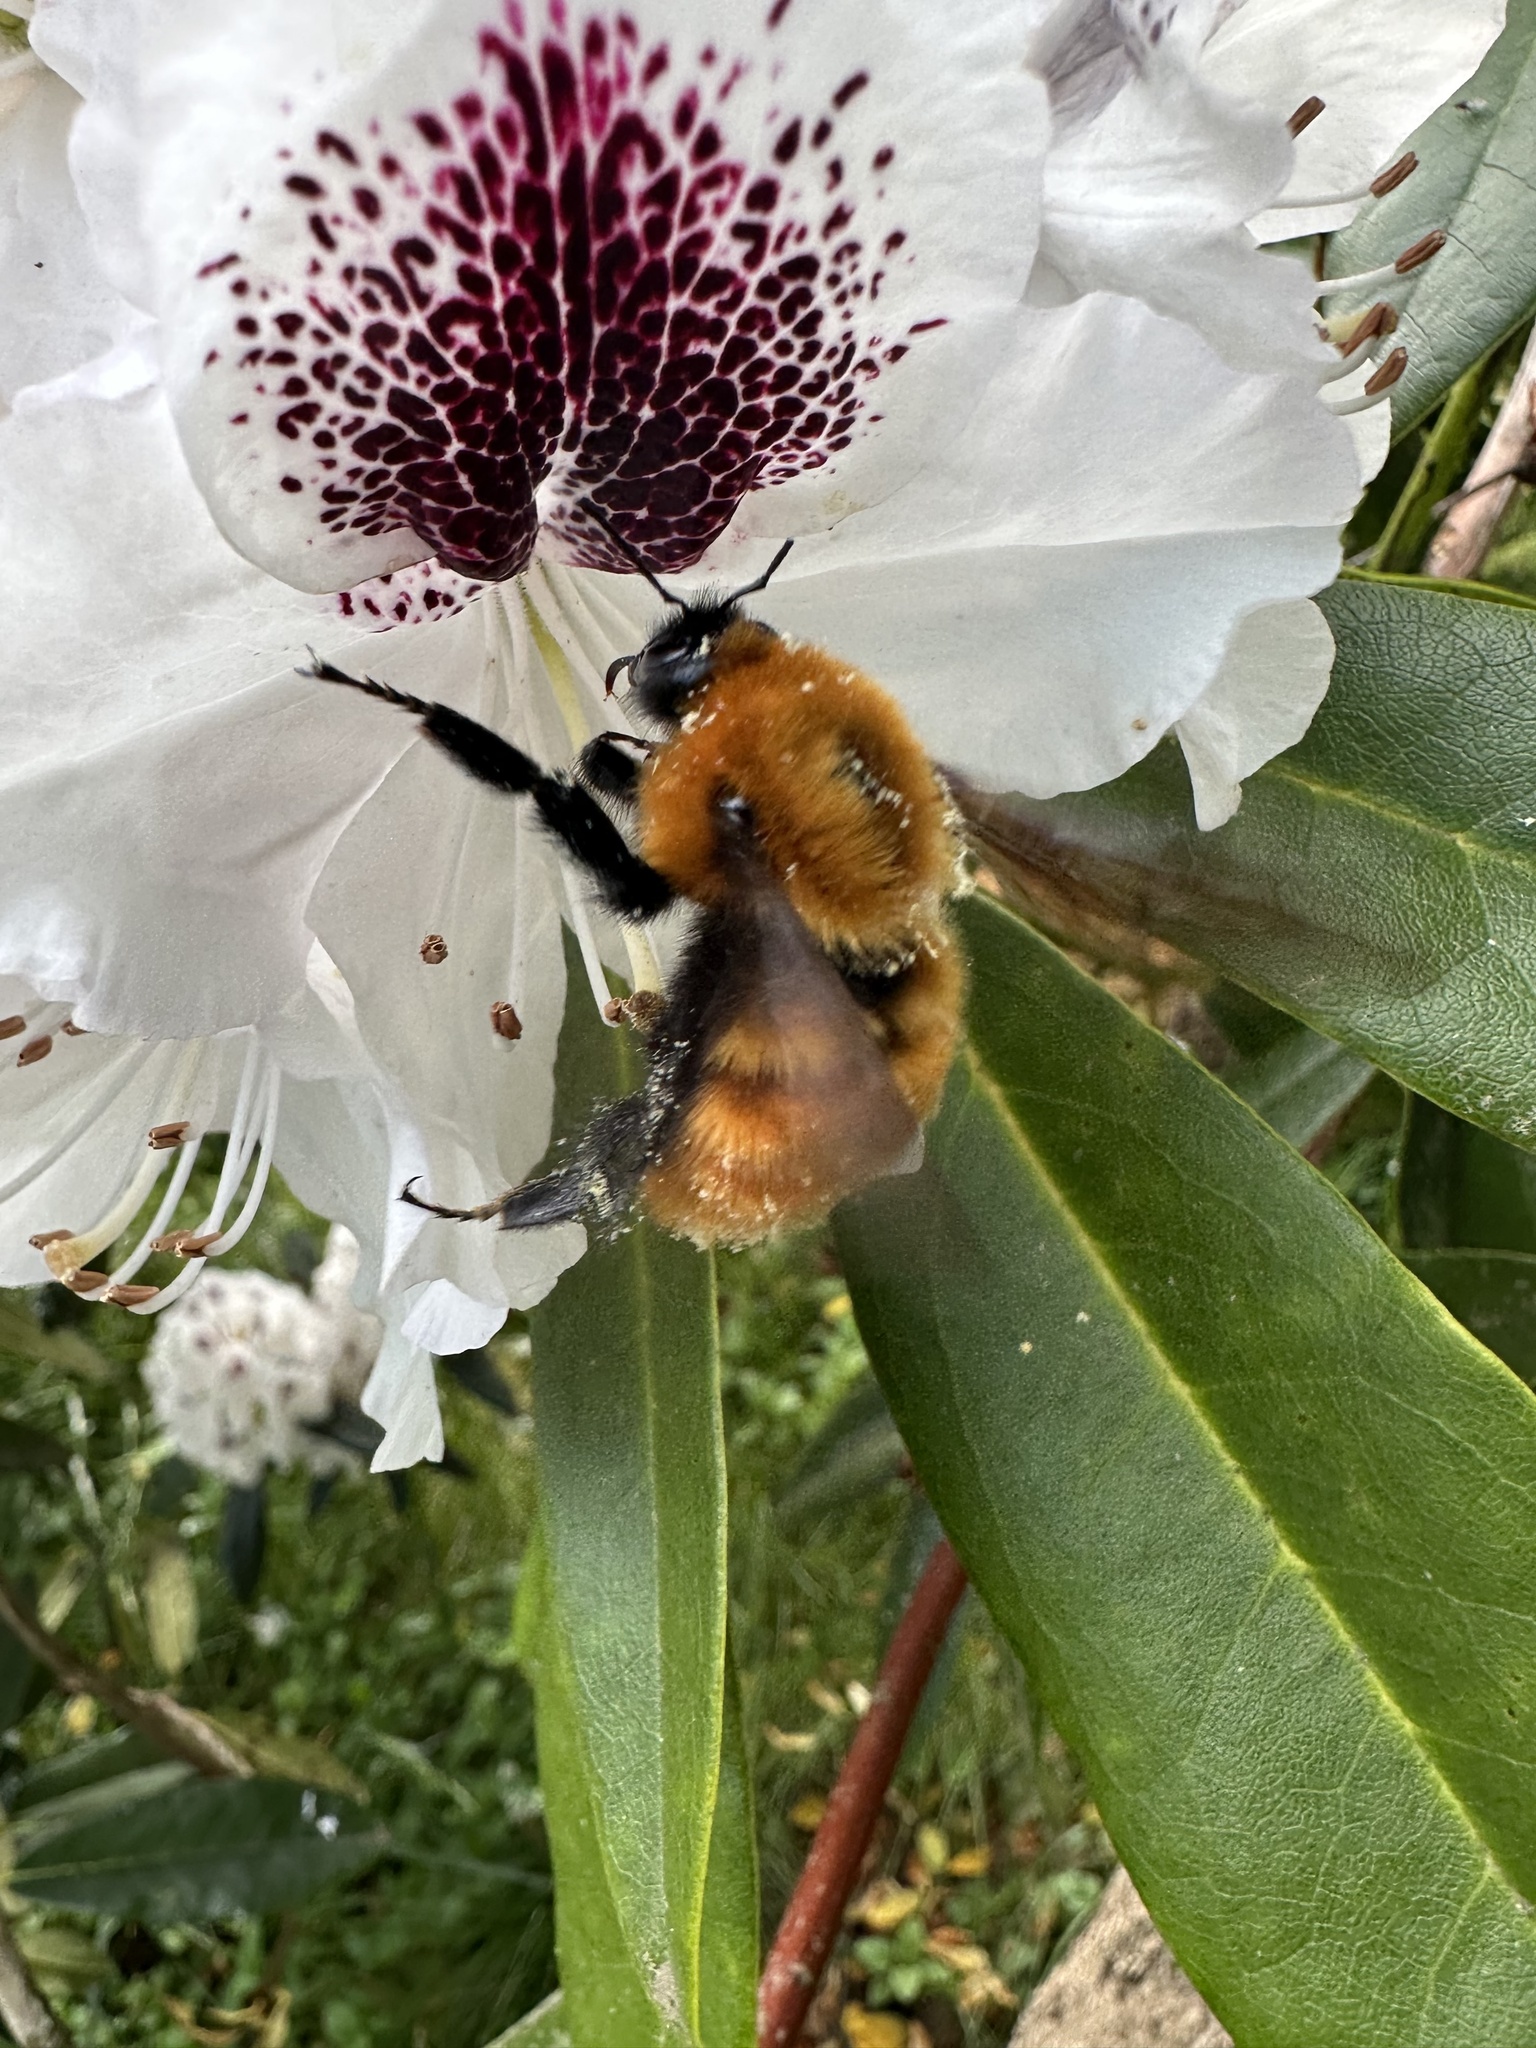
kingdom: Animalia
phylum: Arthropoda
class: Insecta
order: Hymenoptera
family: Apidae
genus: Bombus
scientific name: Bombus dahlbomii
